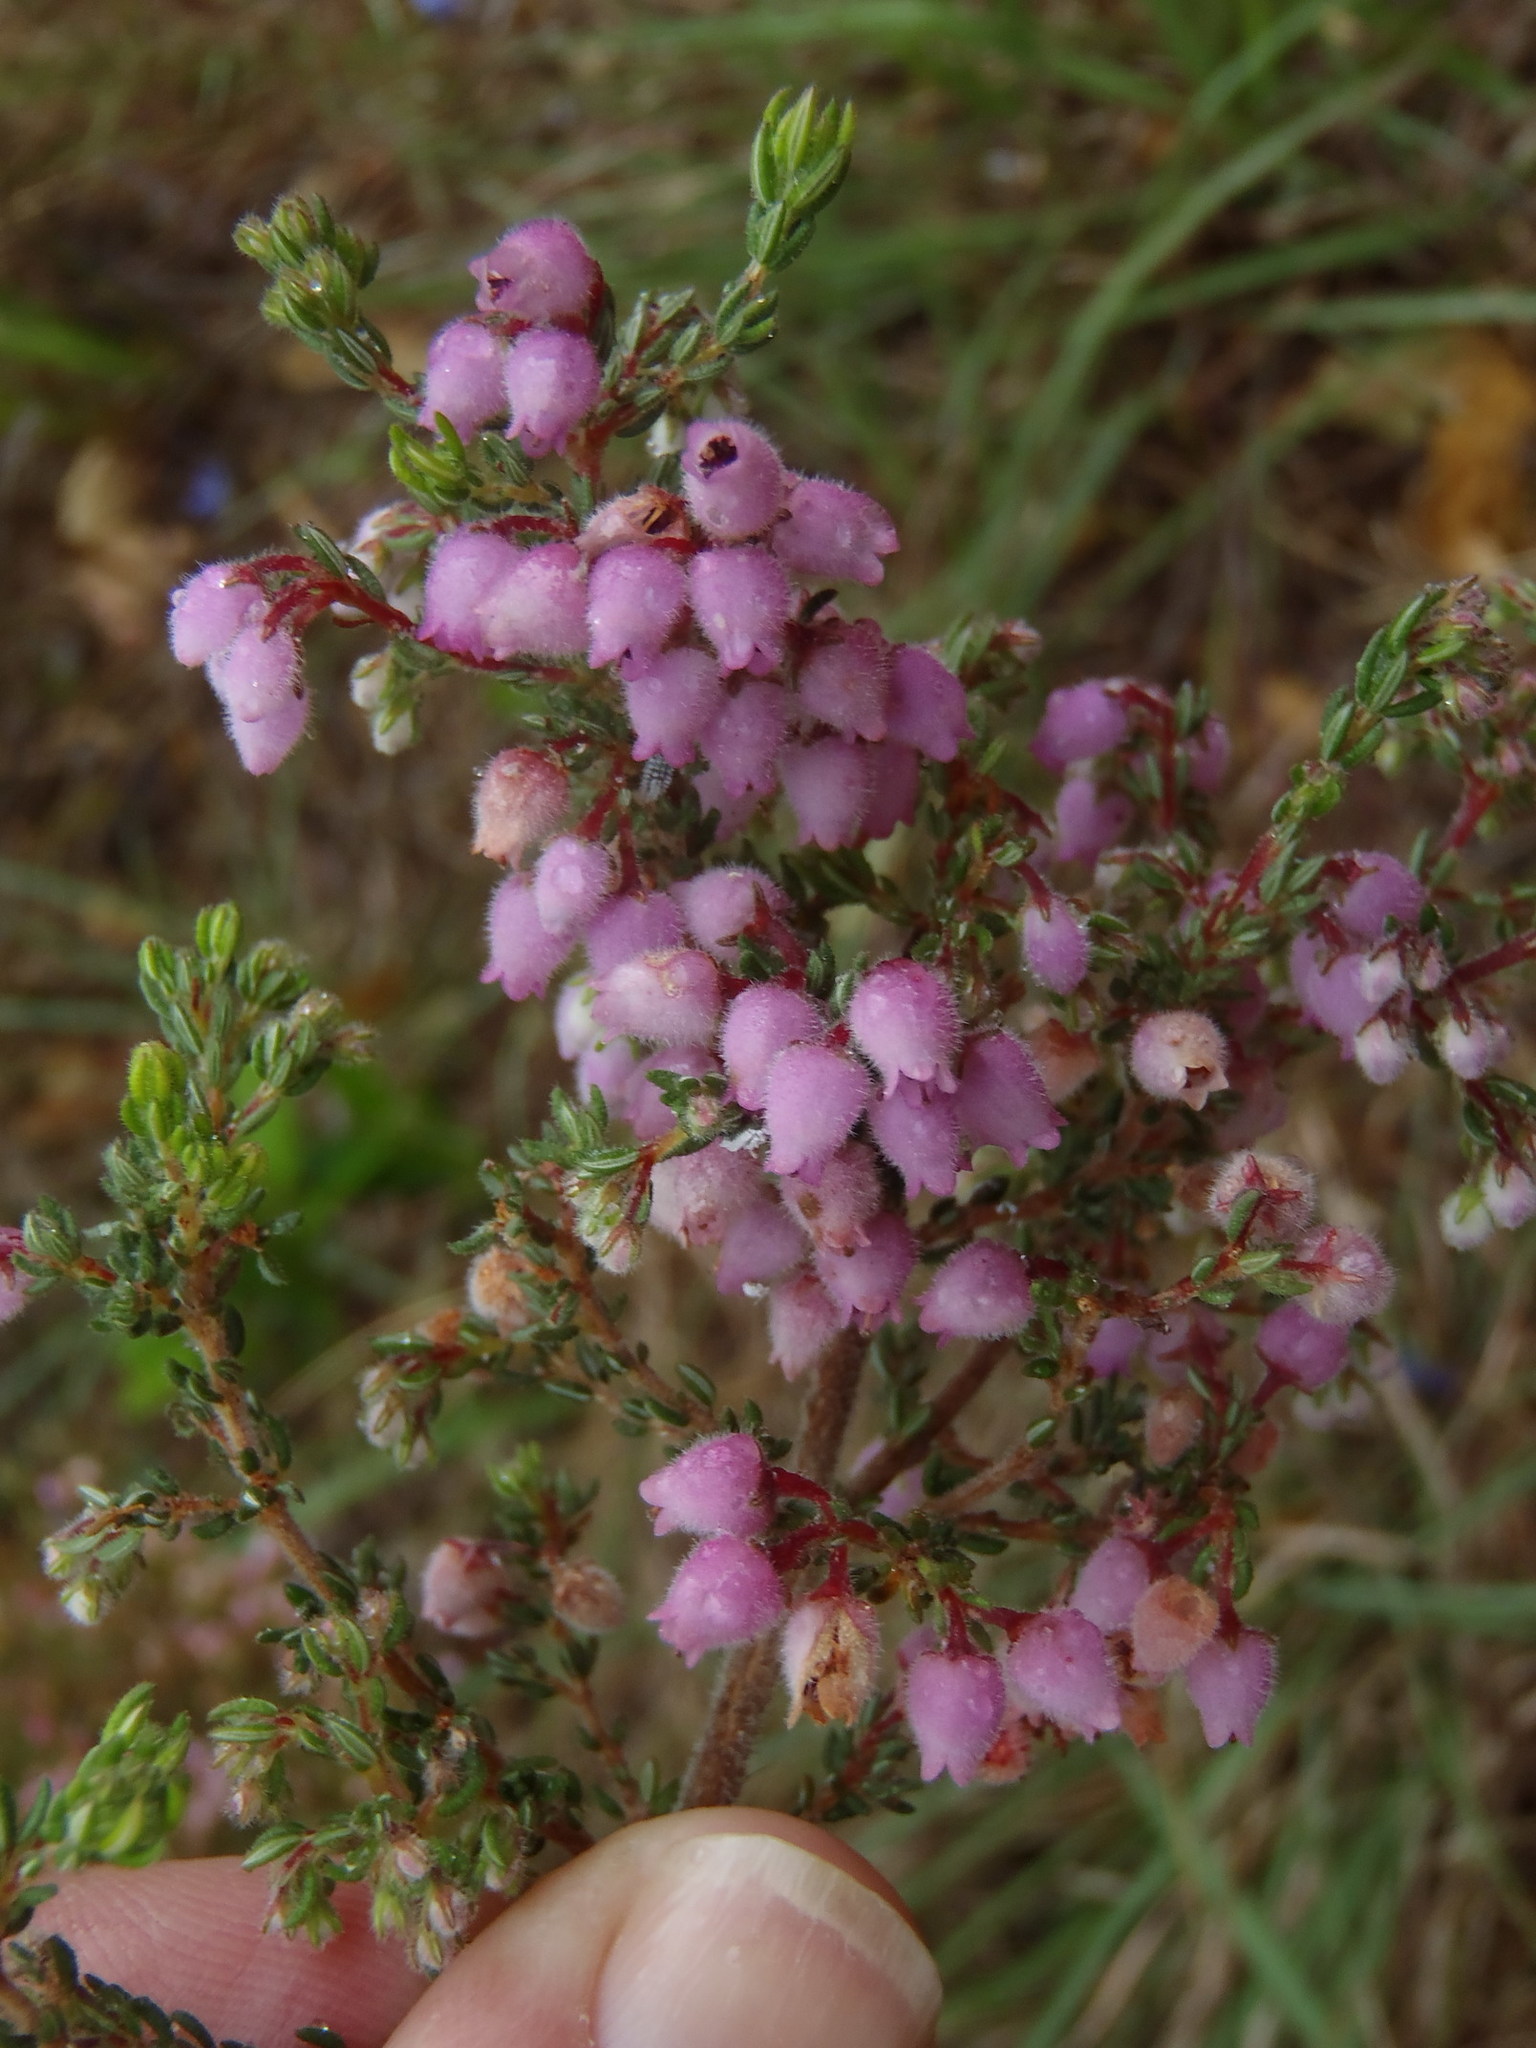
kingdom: Plantae
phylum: Tracheophyta
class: Magnoliopsida
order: Ericales
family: Ericaceae
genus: Erica
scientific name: Erica hirtiflora
